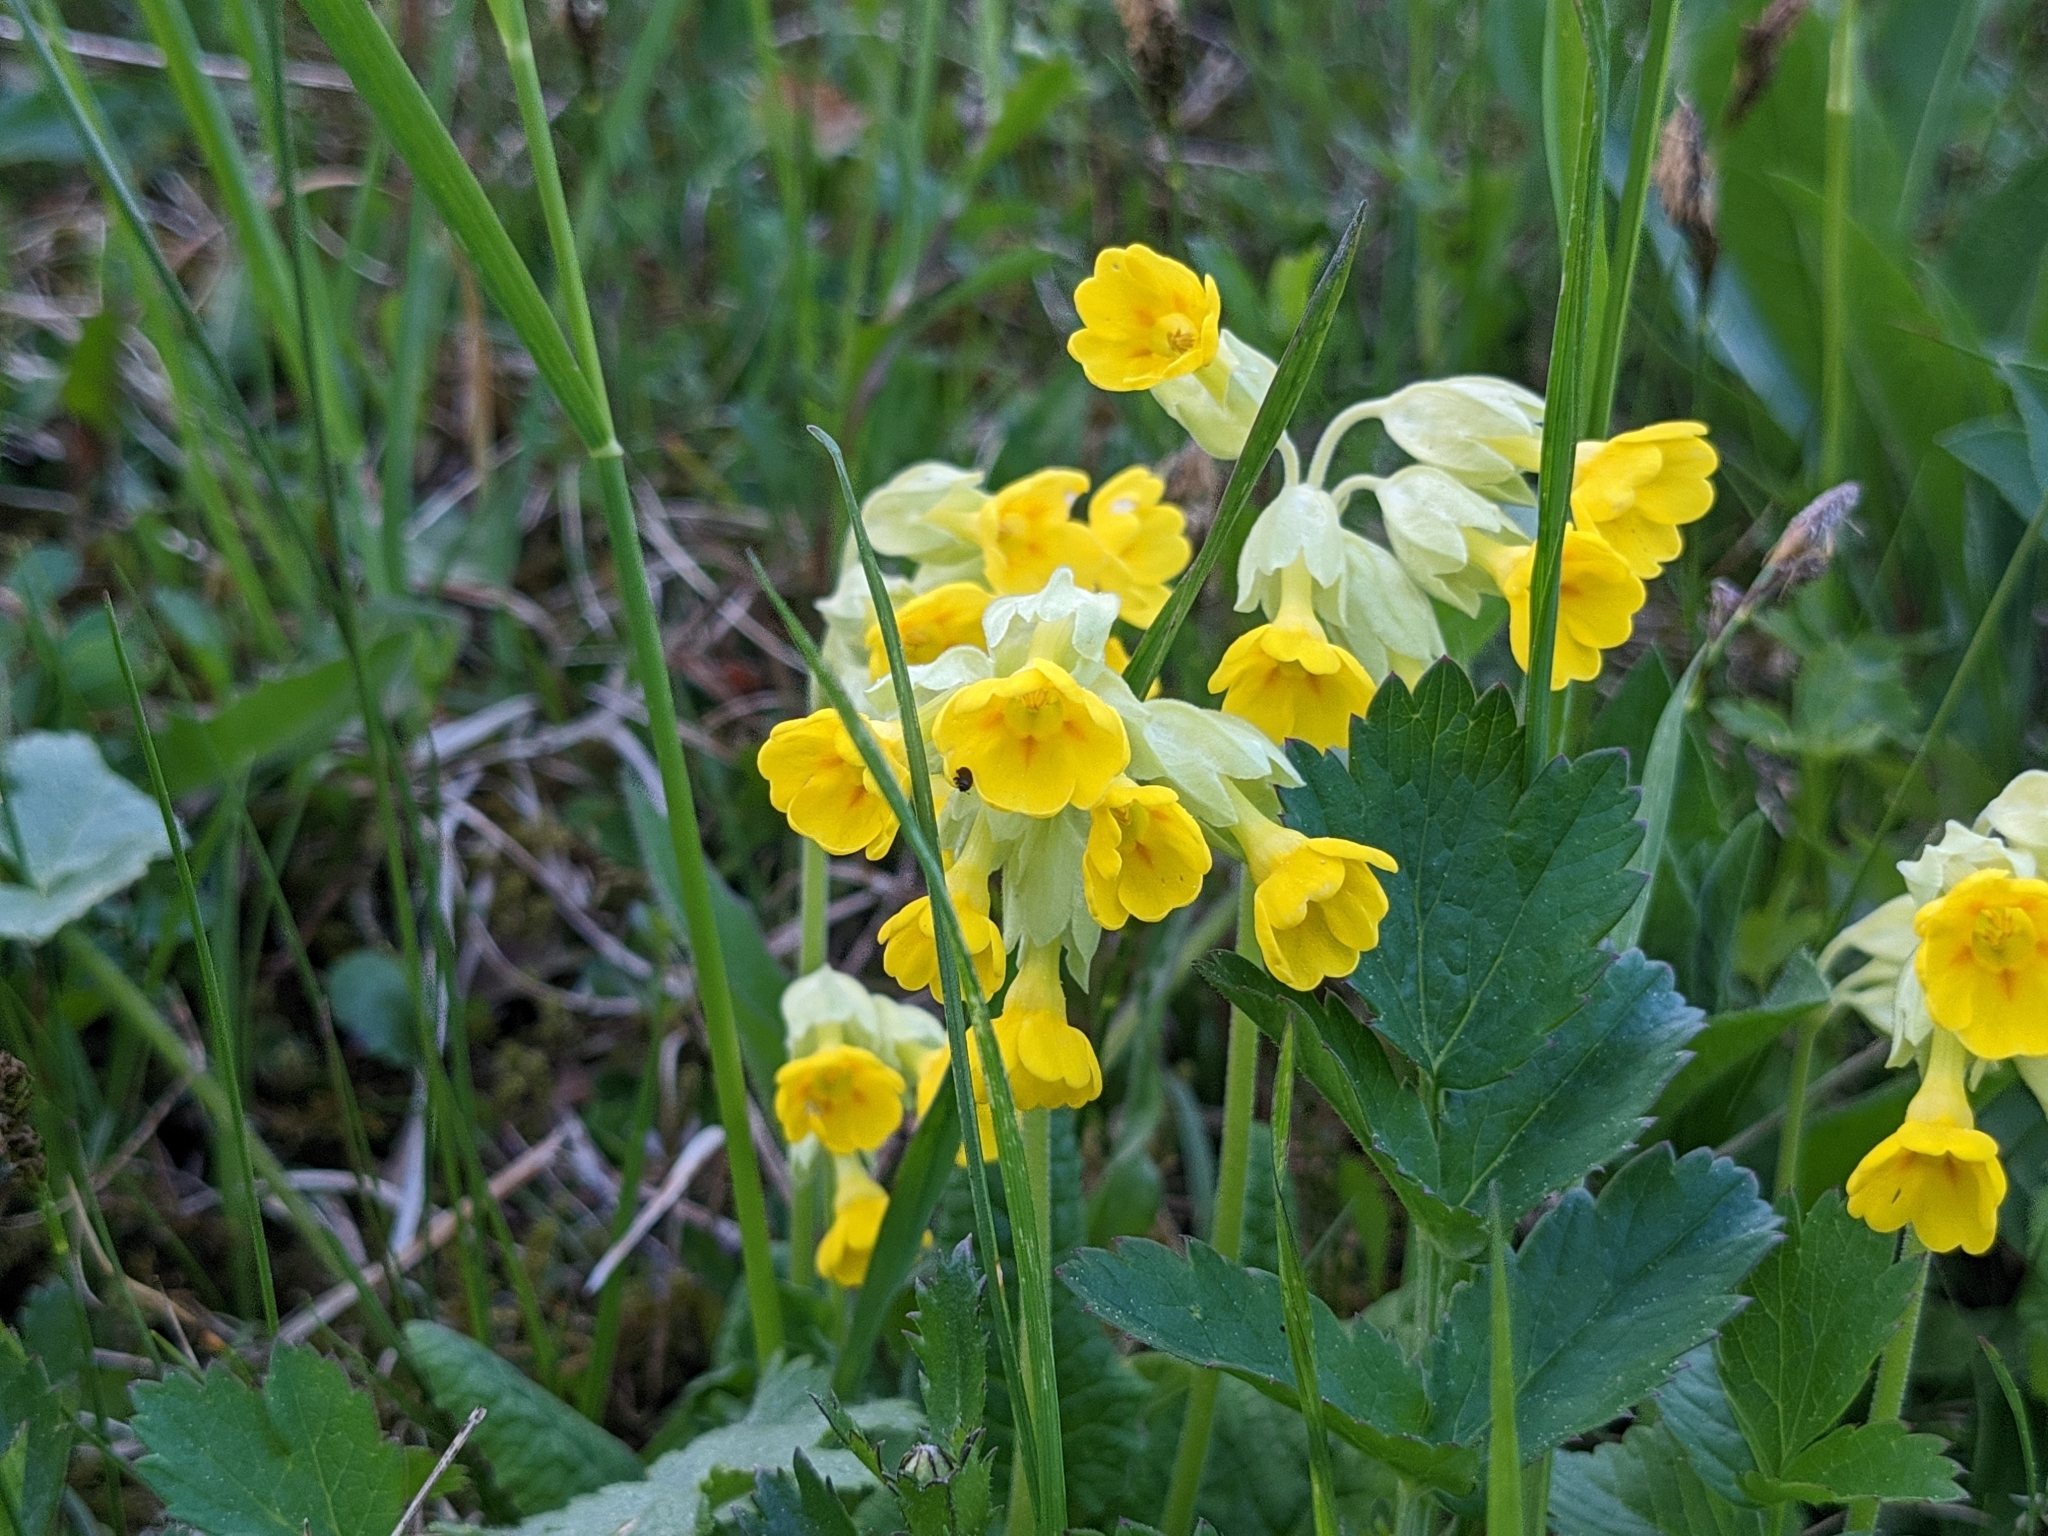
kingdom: Plantae
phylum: Tracheophyta
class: Magnoliopsida
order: Ericales
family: Primulaceae
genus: Primula
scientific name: Primula veris
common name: Cowslip
